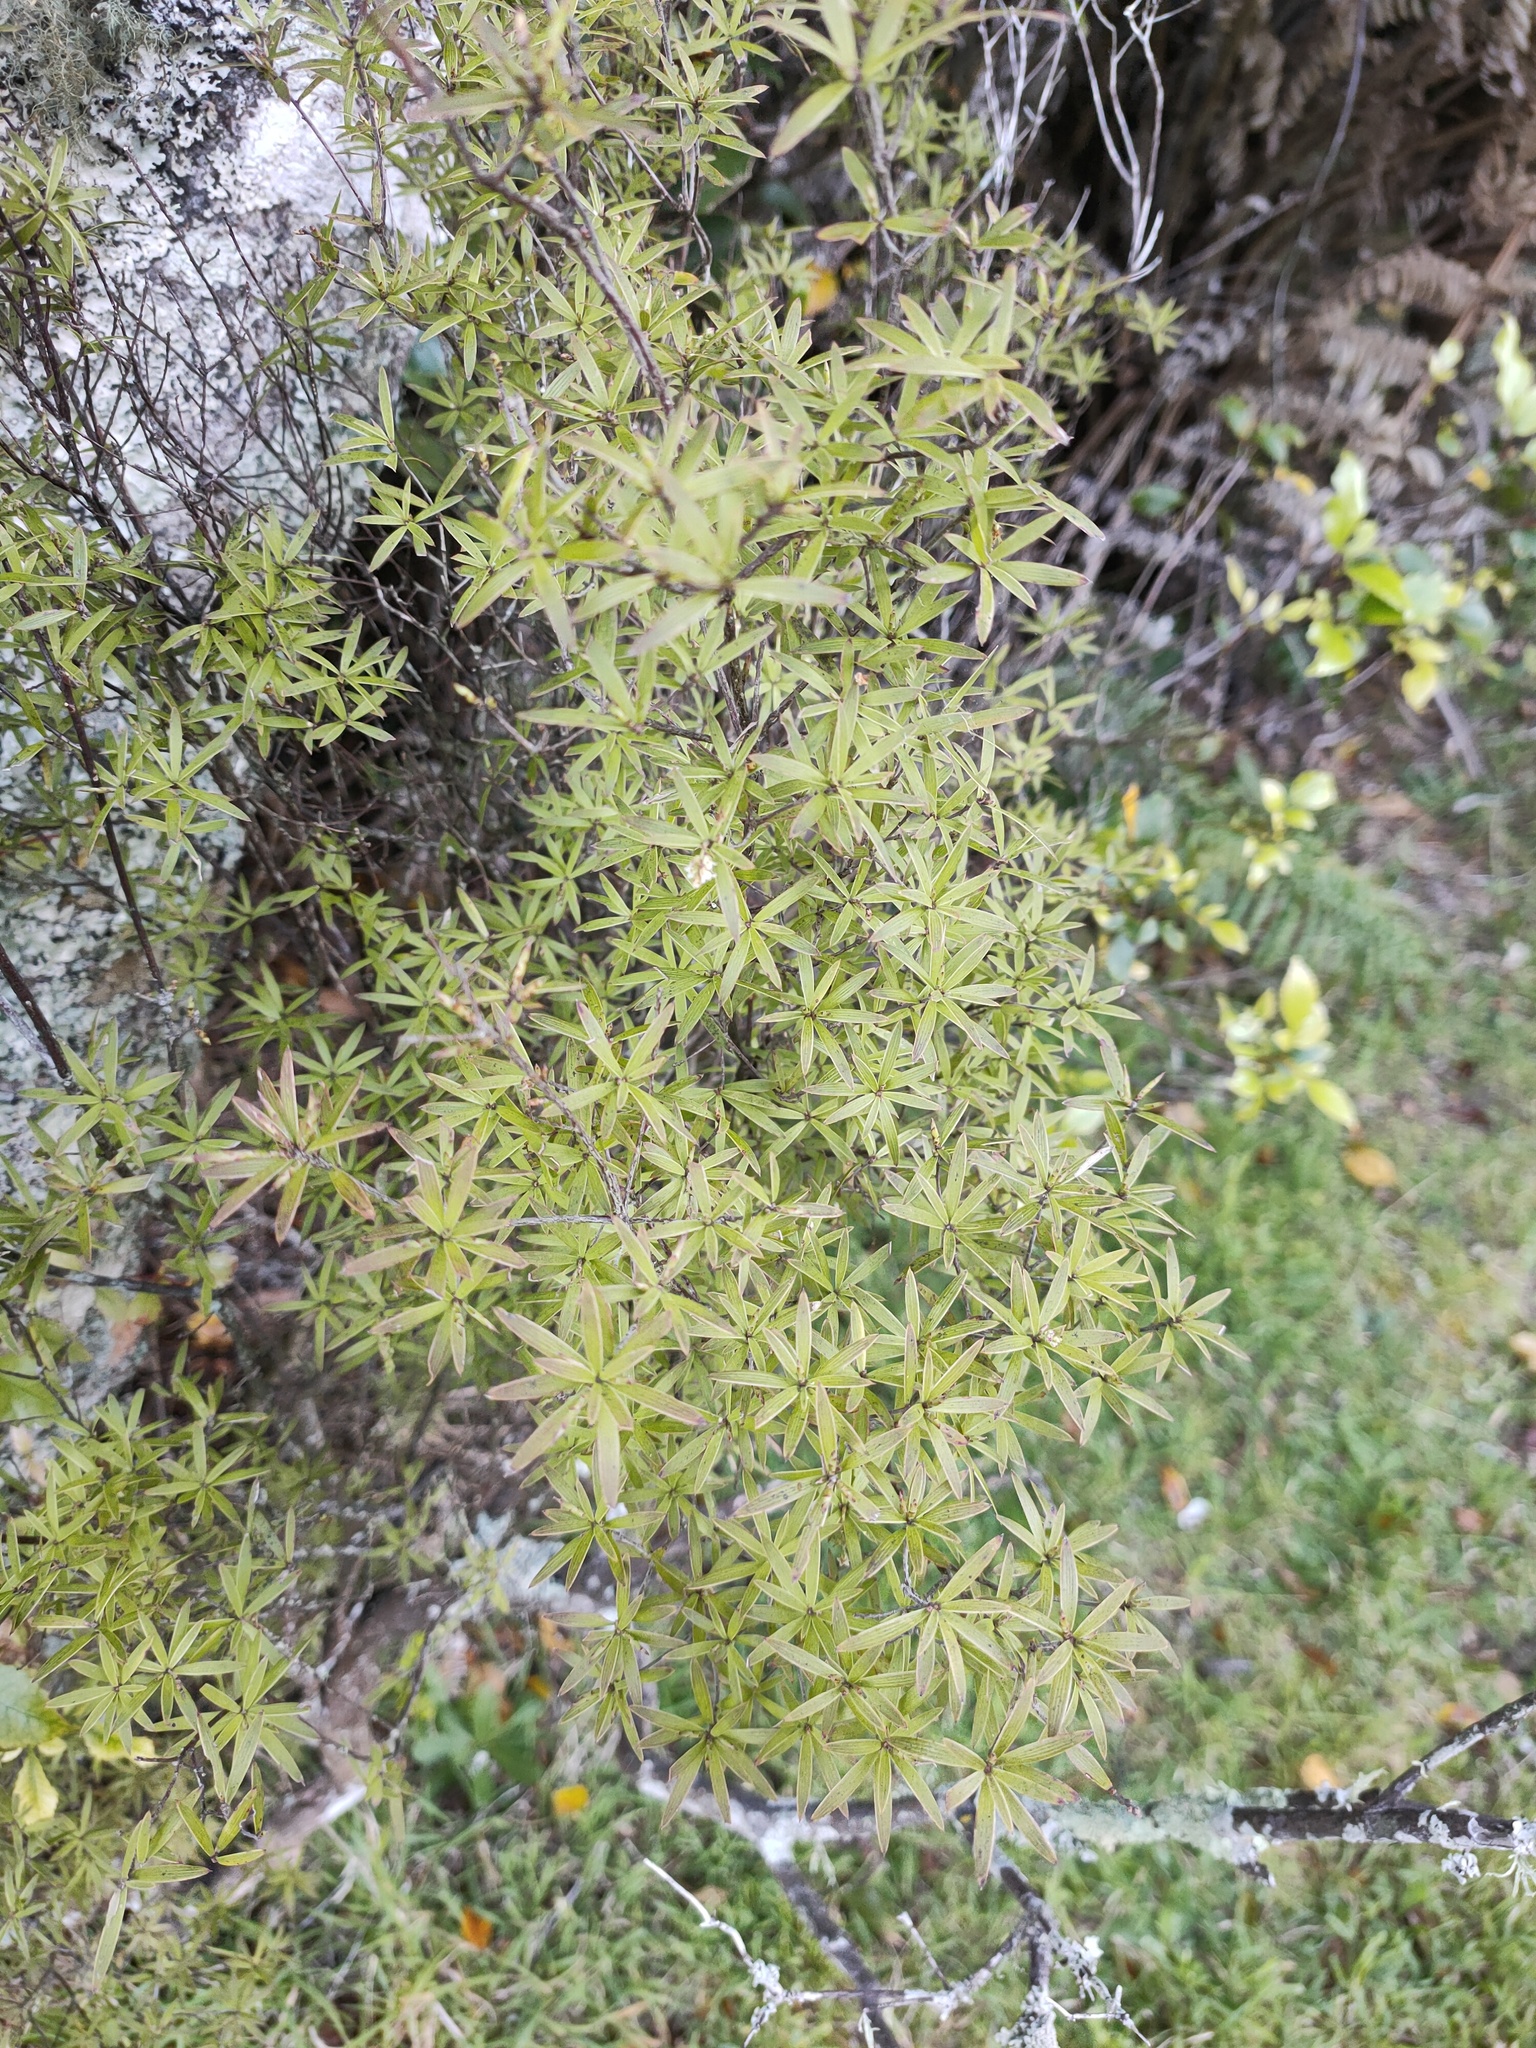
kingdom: Plantae
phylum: Tracheophyta
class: Magnoliopsida
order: Ericales
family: Ericaceae
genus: Leucopogon
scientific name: Leucopogon fasciculatus
